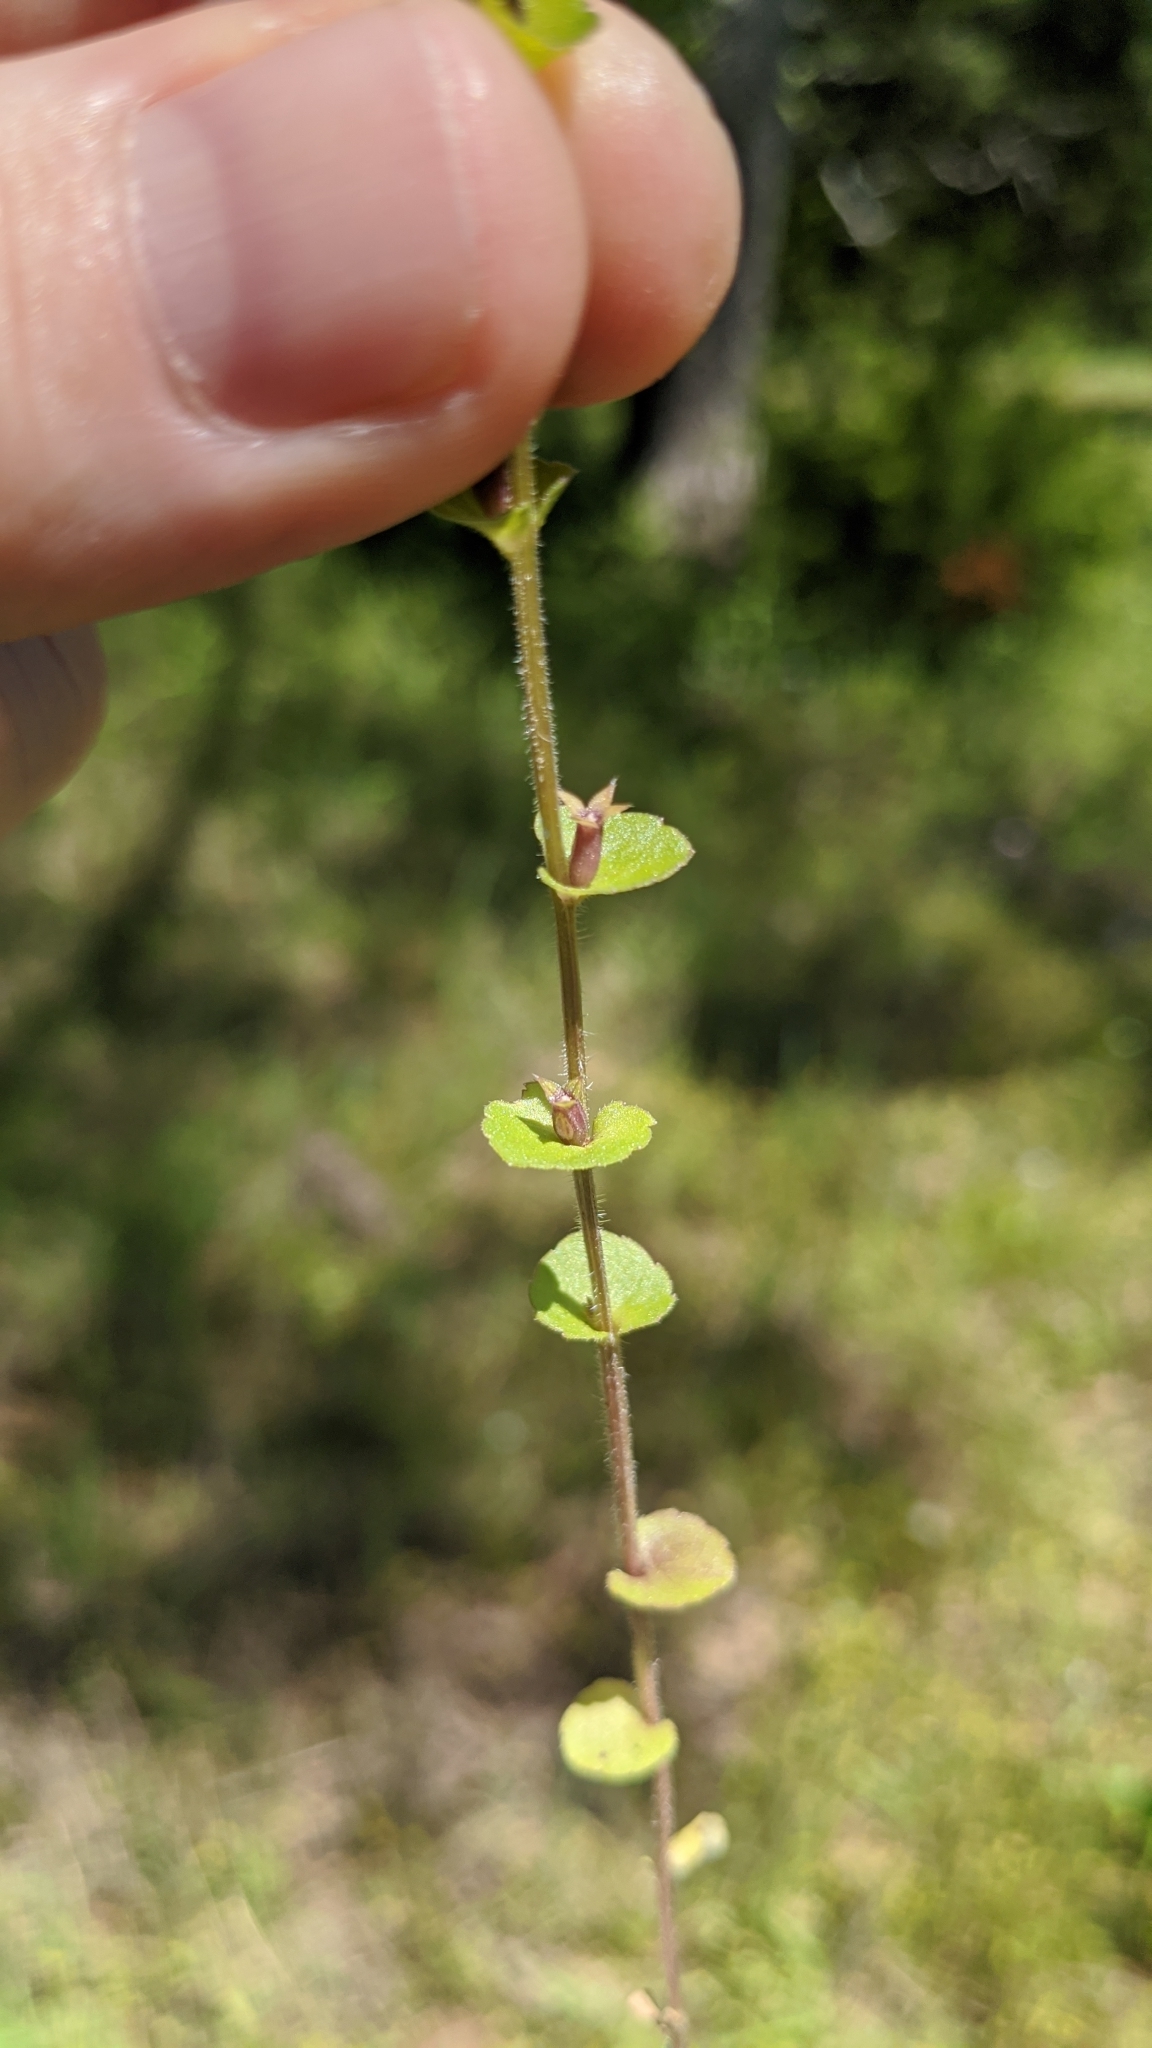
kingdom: Plantae
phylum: Tracheophyta
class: Magnoliopsida
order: Asterales
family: Campanulaceae
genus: Triodanis
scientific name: Triodanis perfoliata
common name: Clasping venus' looking-glass
